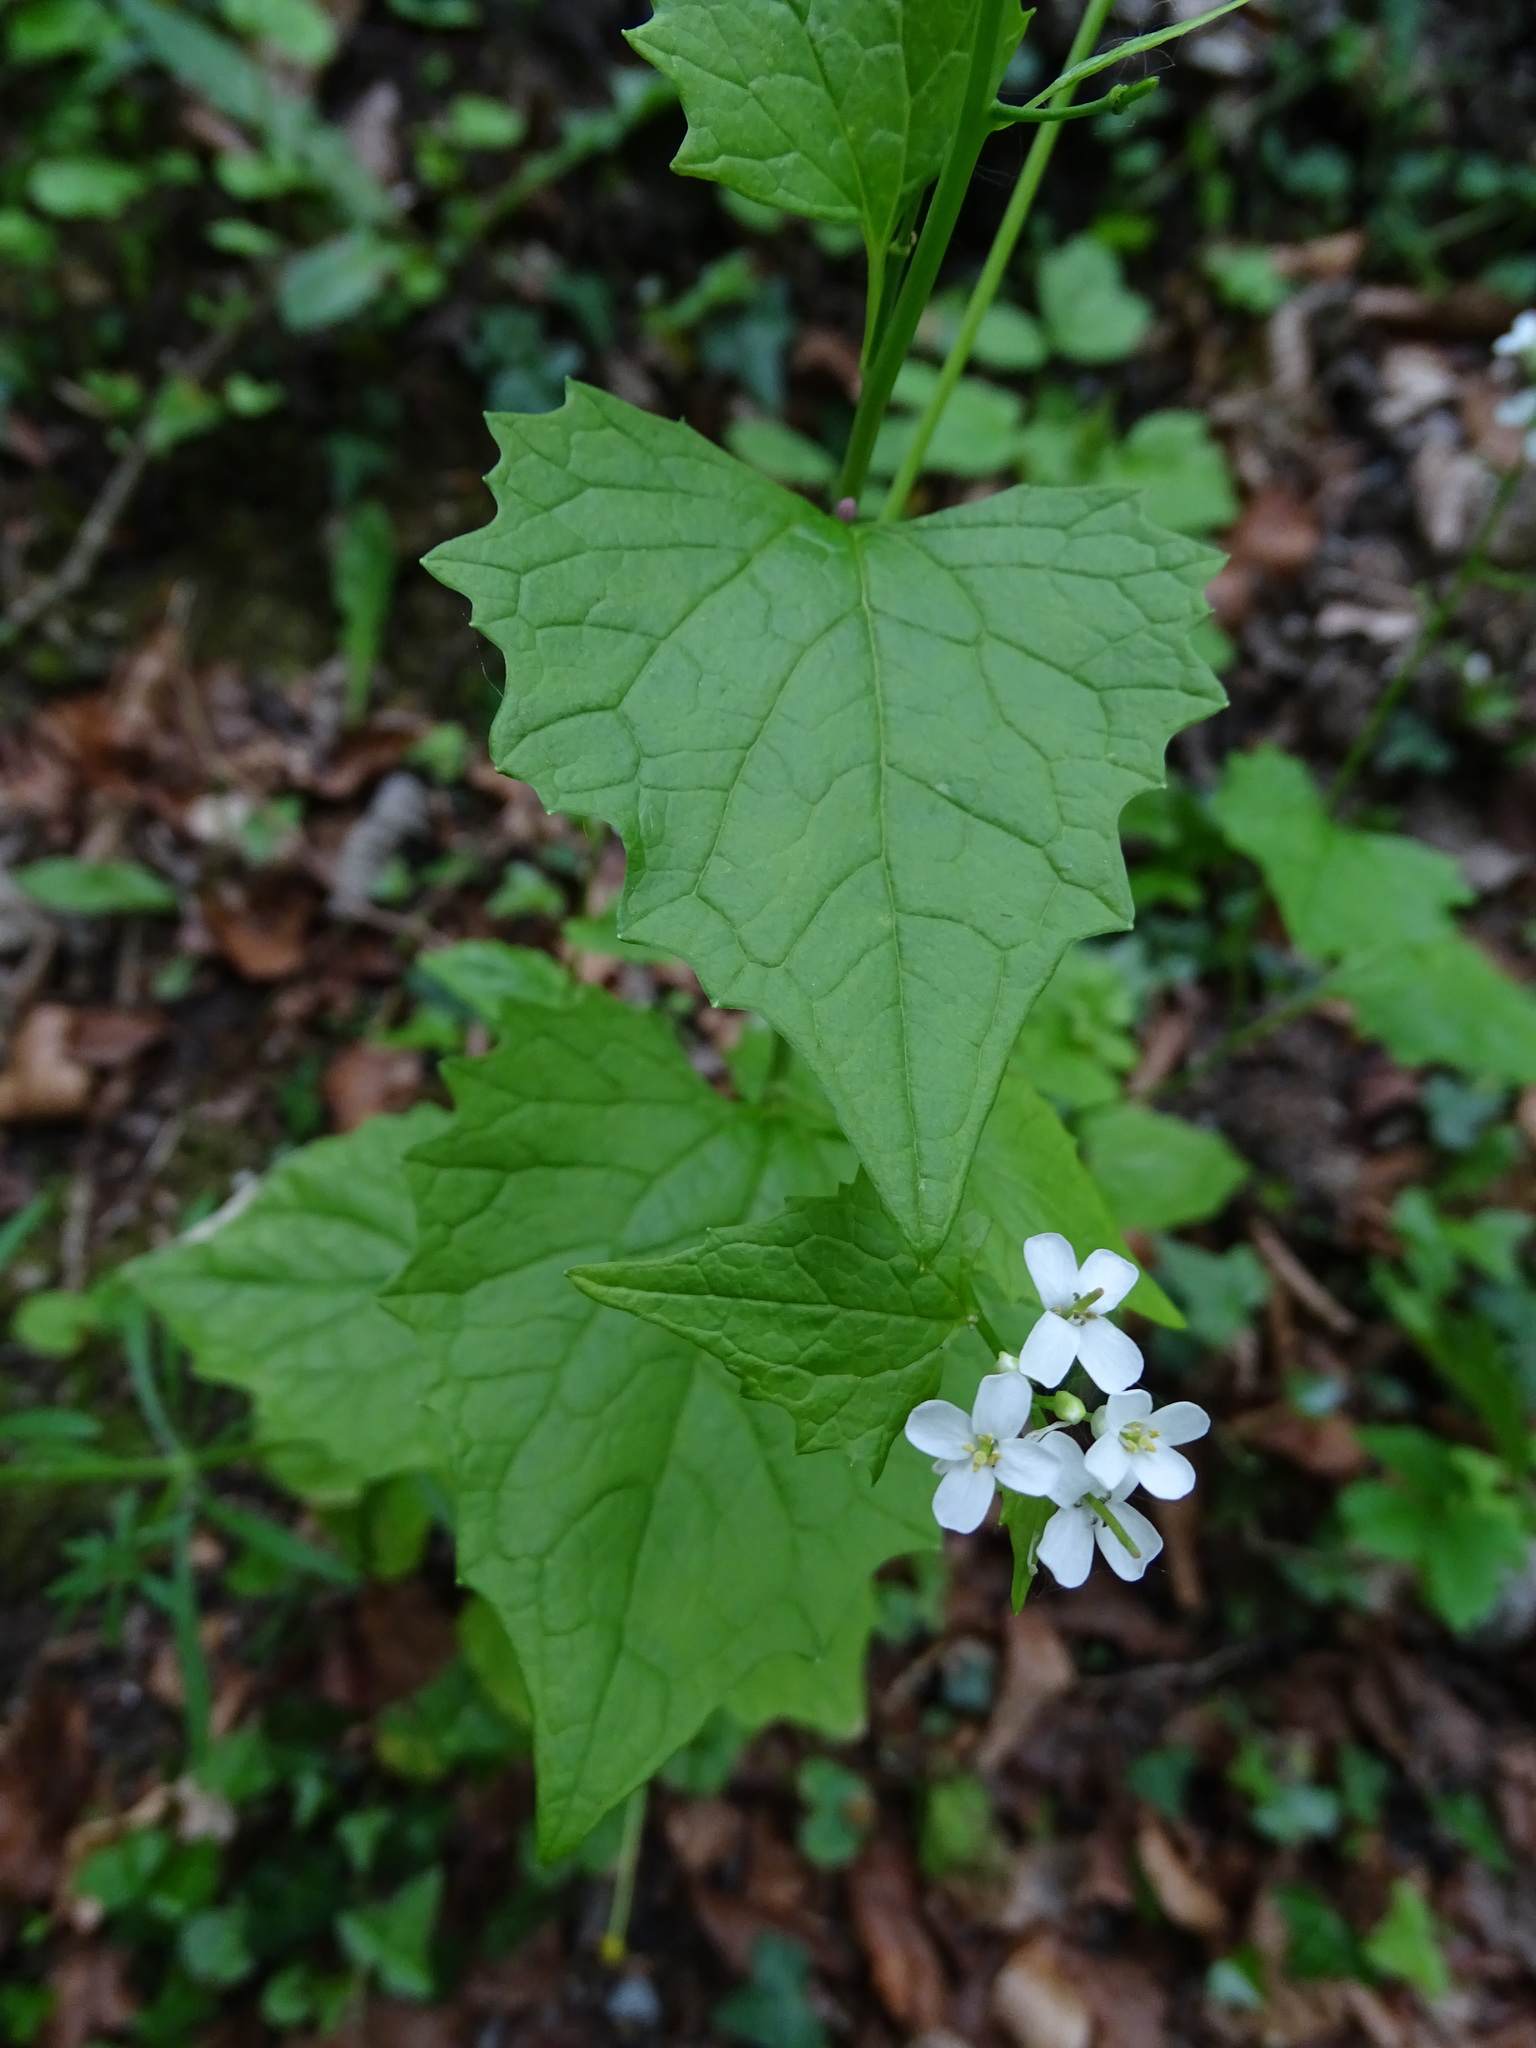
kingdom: Plantae
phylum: Tracheophyta
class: Magnoliopsida
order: Brassicales
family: Brassicaceae
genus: Alliaria
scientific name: Alliaria petiolata
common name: Garlic mustard
